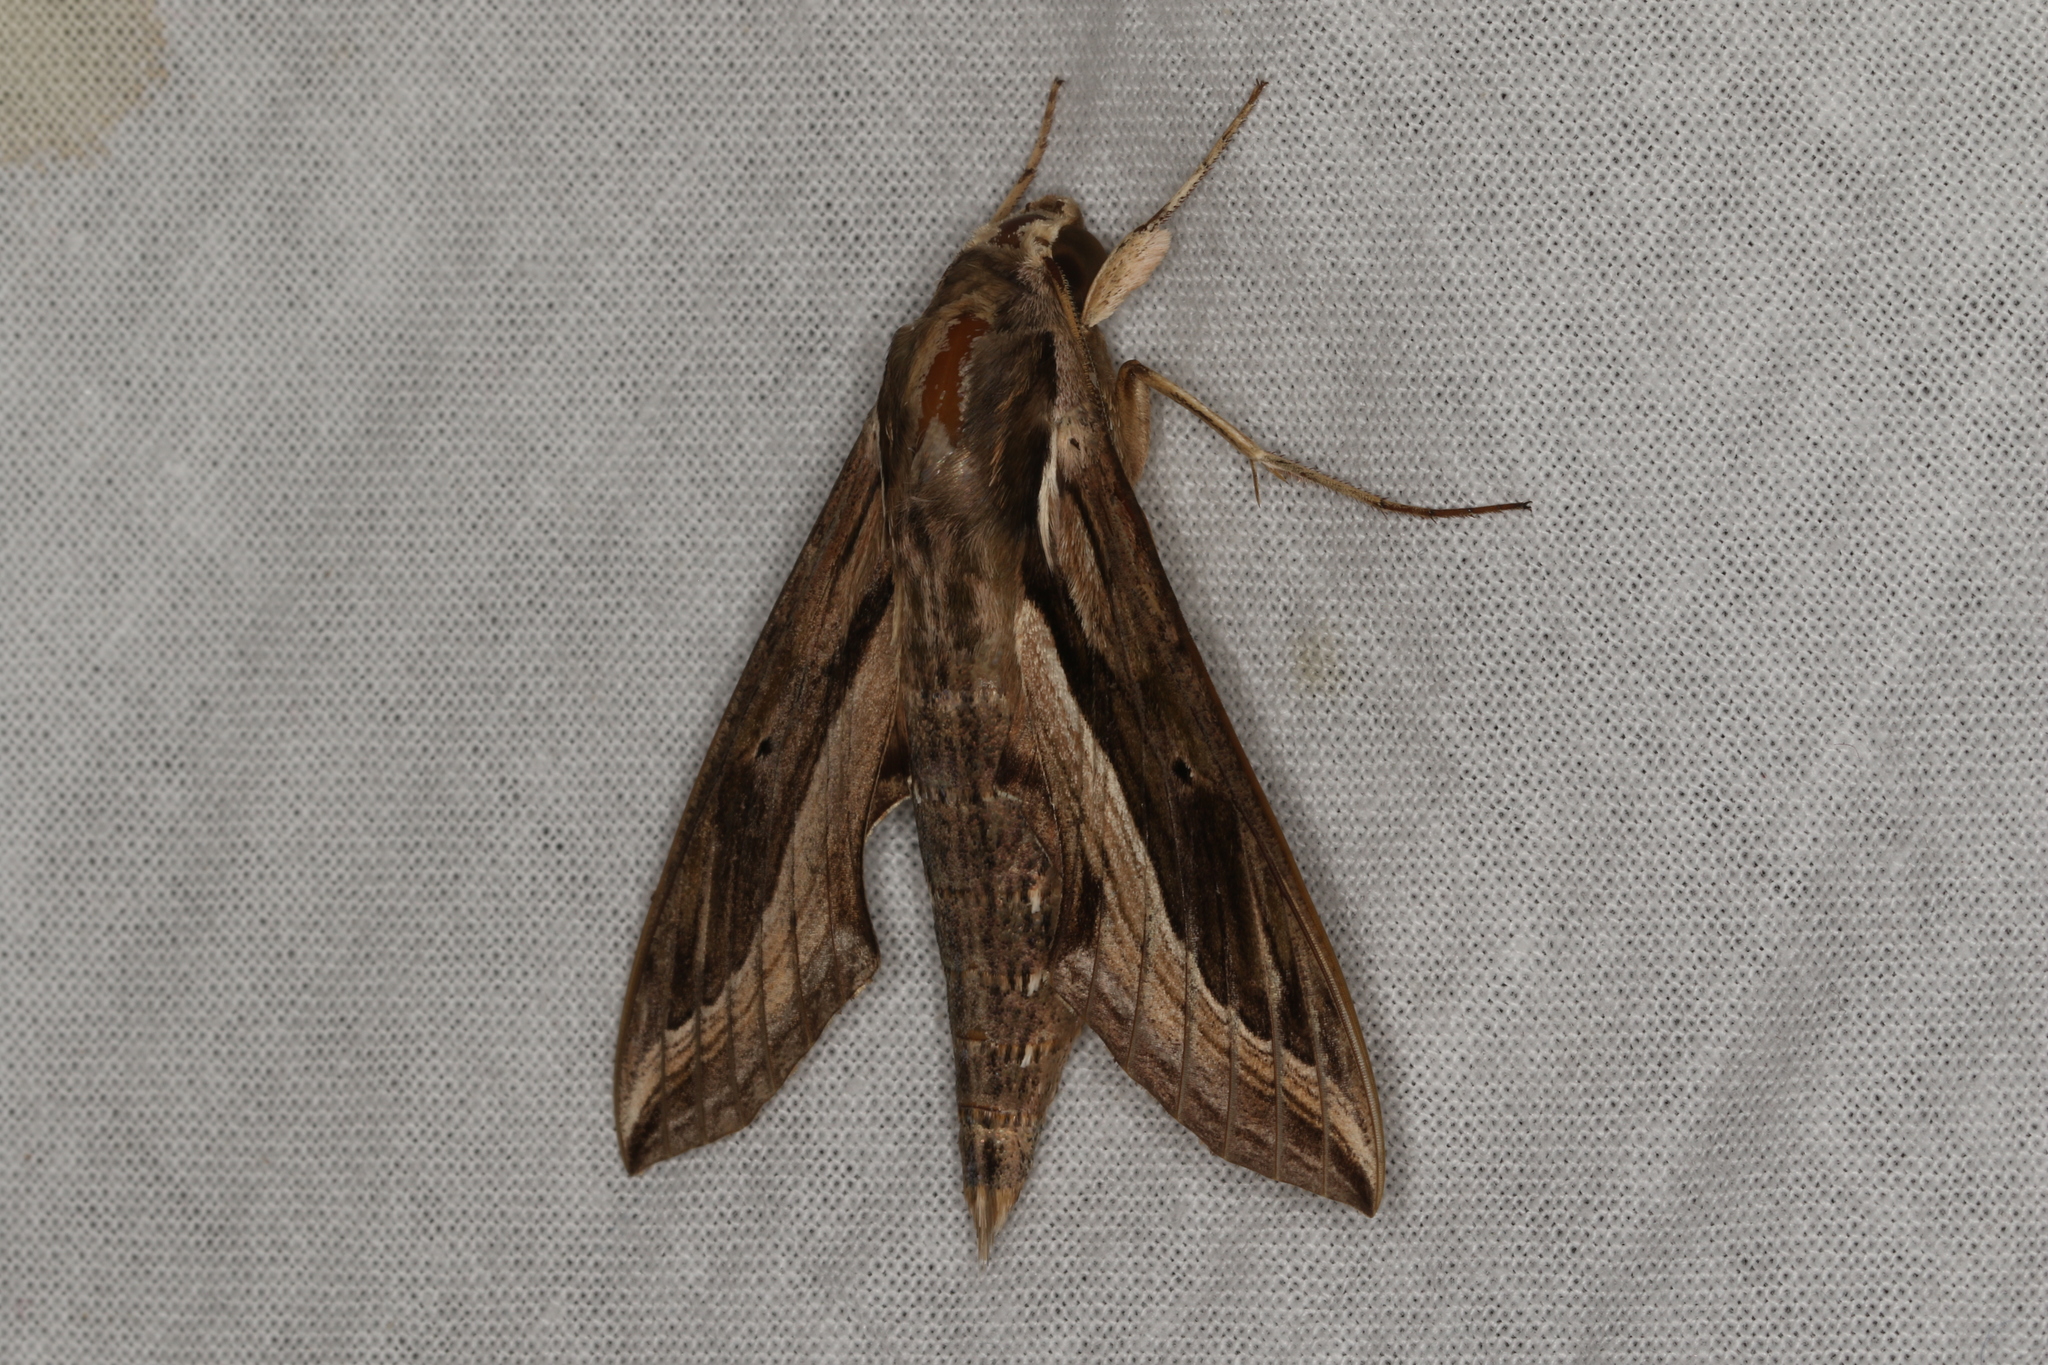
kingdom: Animalia
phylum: Arthropoda
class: Insecta
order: Lepidoptera
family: Sphingidae
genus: Hippotion
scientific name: Hippotion velox
